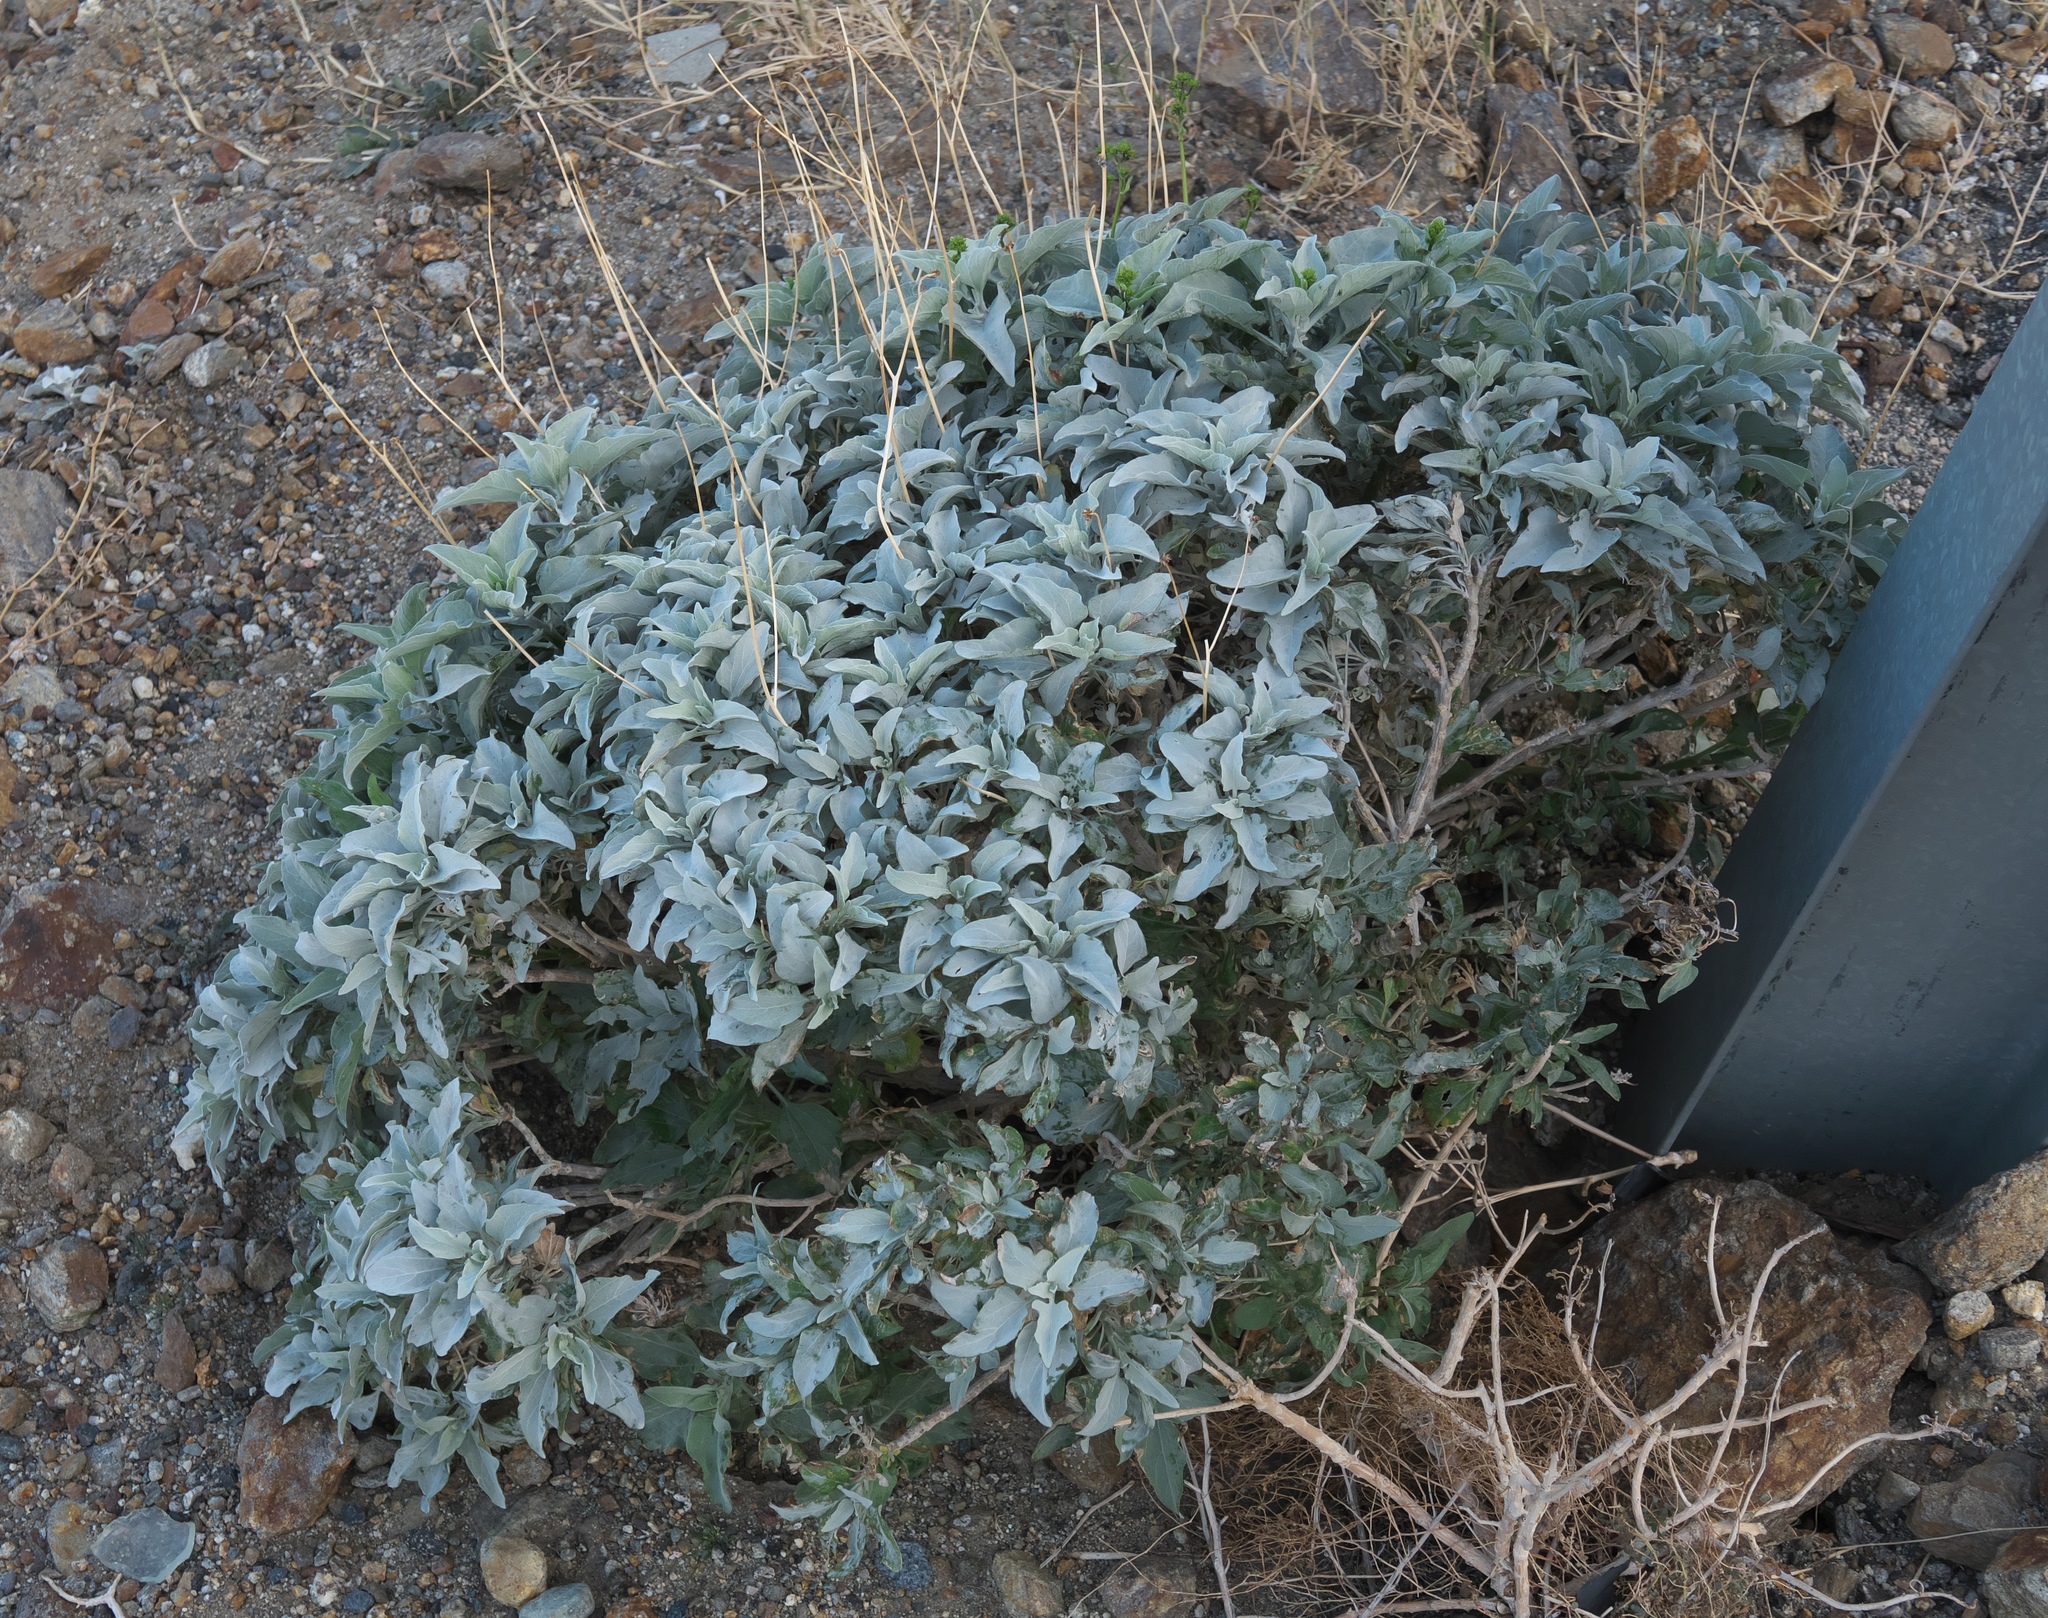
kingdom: Plantae
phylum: Tracheophyta
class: Magnoliopsida
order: Asterales
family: Asteraceae
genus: Encelia
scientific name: Encelia farinosa
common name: Brittlebush
